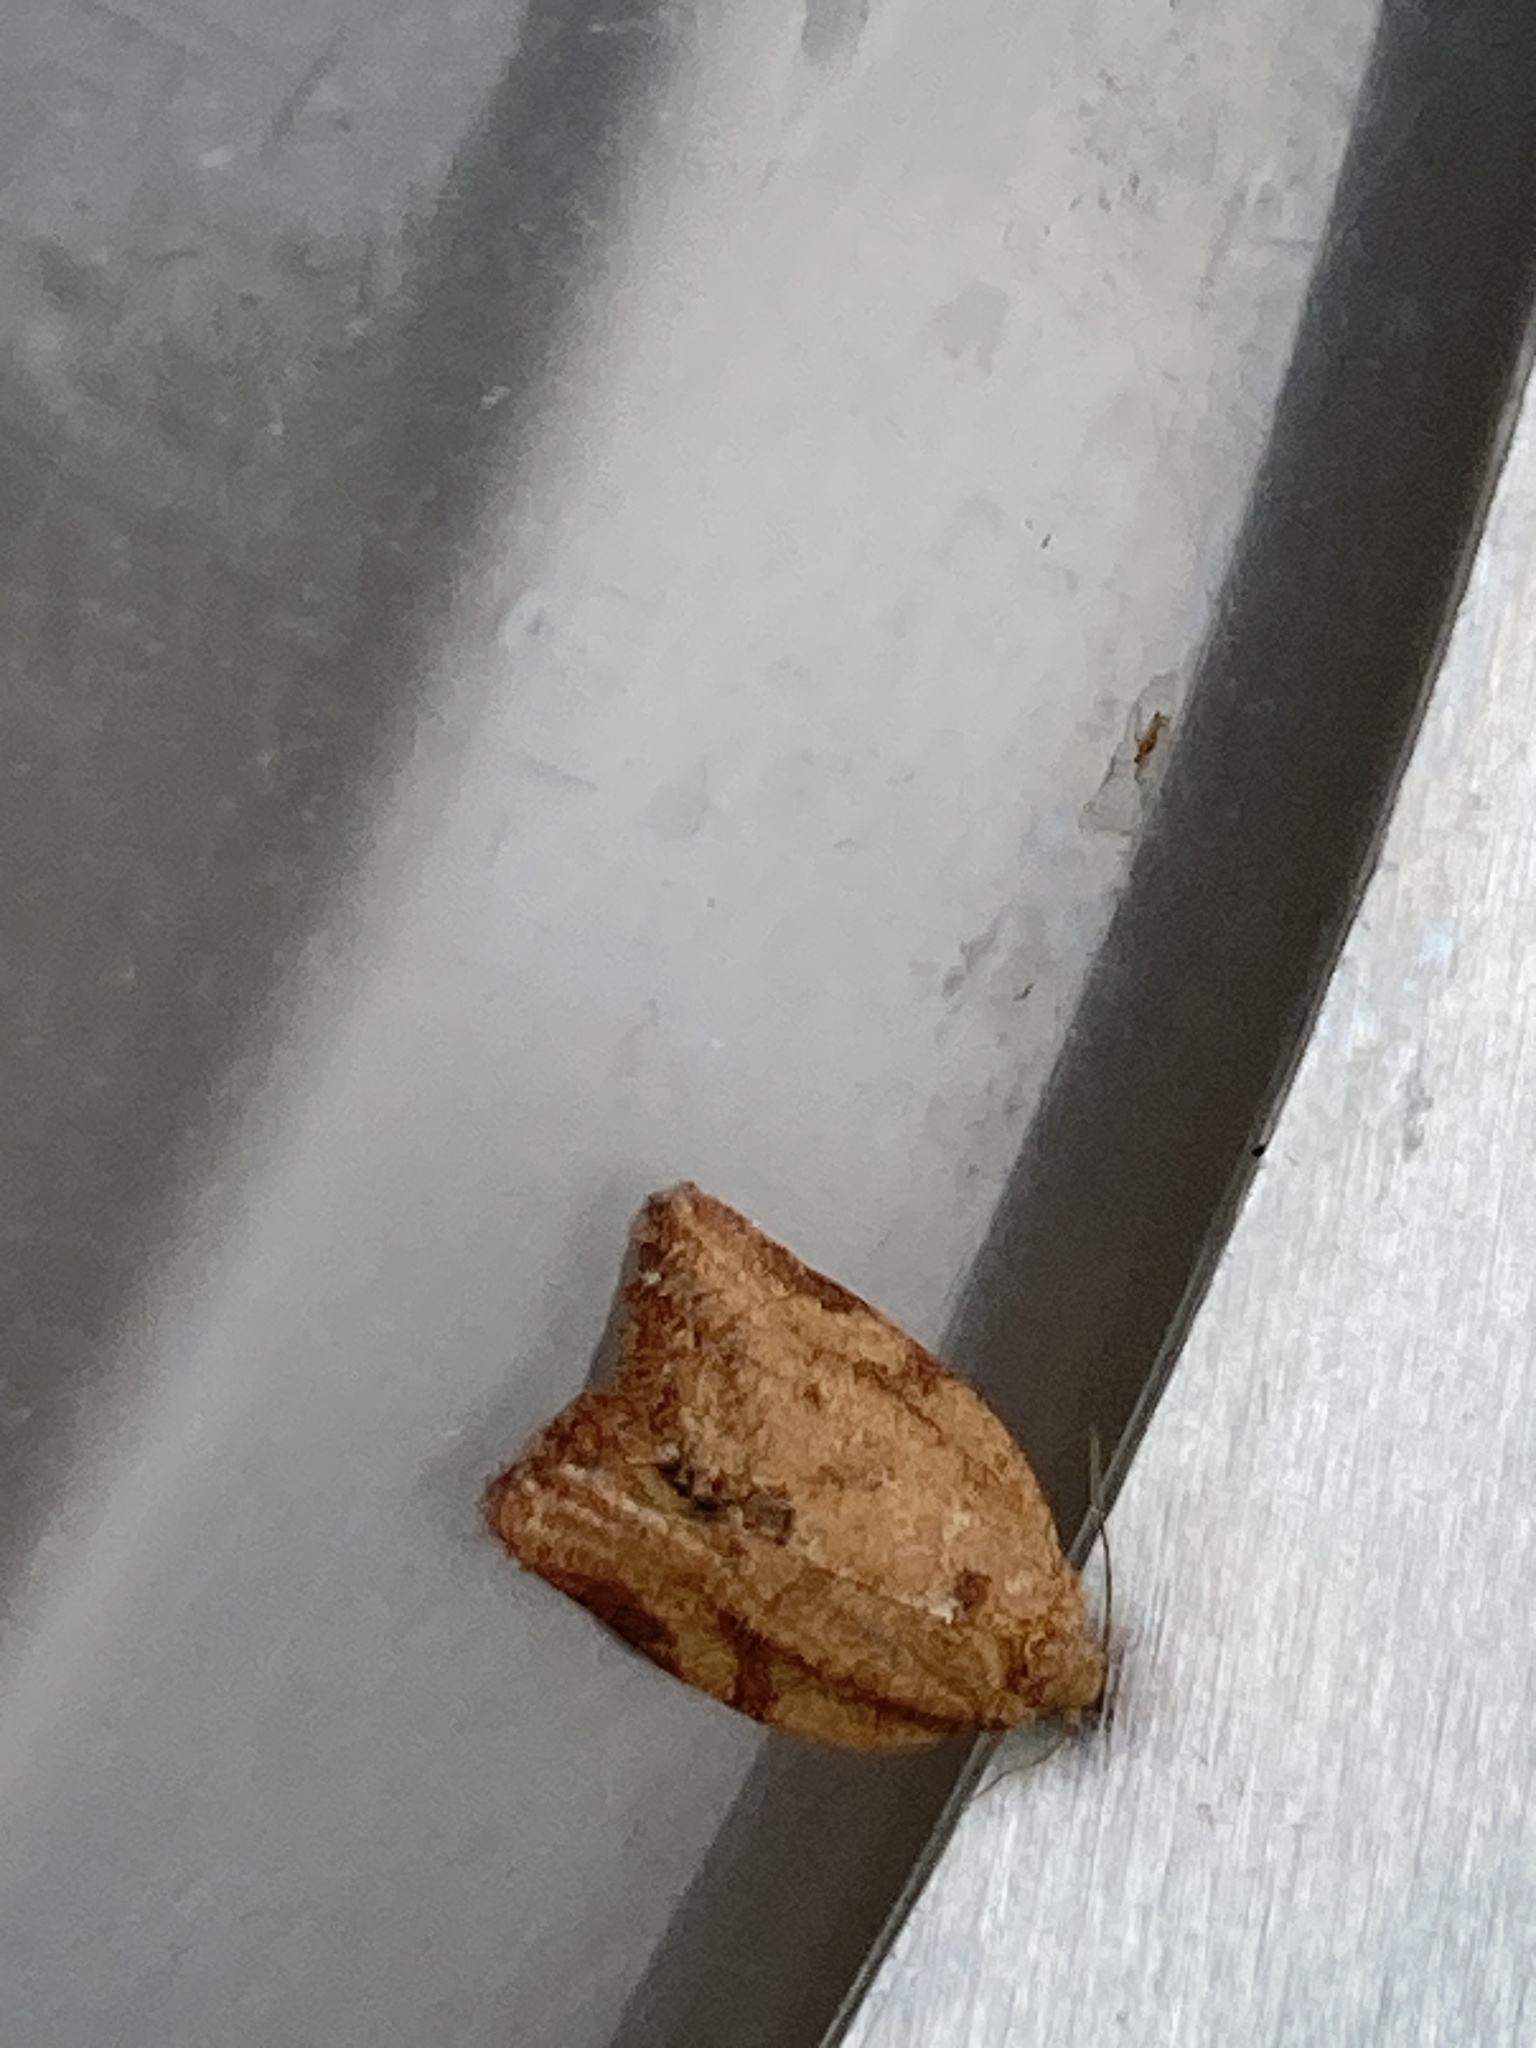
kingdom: Animalia
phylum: Arthropoda
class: Insecta
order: Lepidoptera
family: Tortricidae
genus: Epiphyas
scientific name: Epiphyas postvittana
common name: Light brown apple moth
